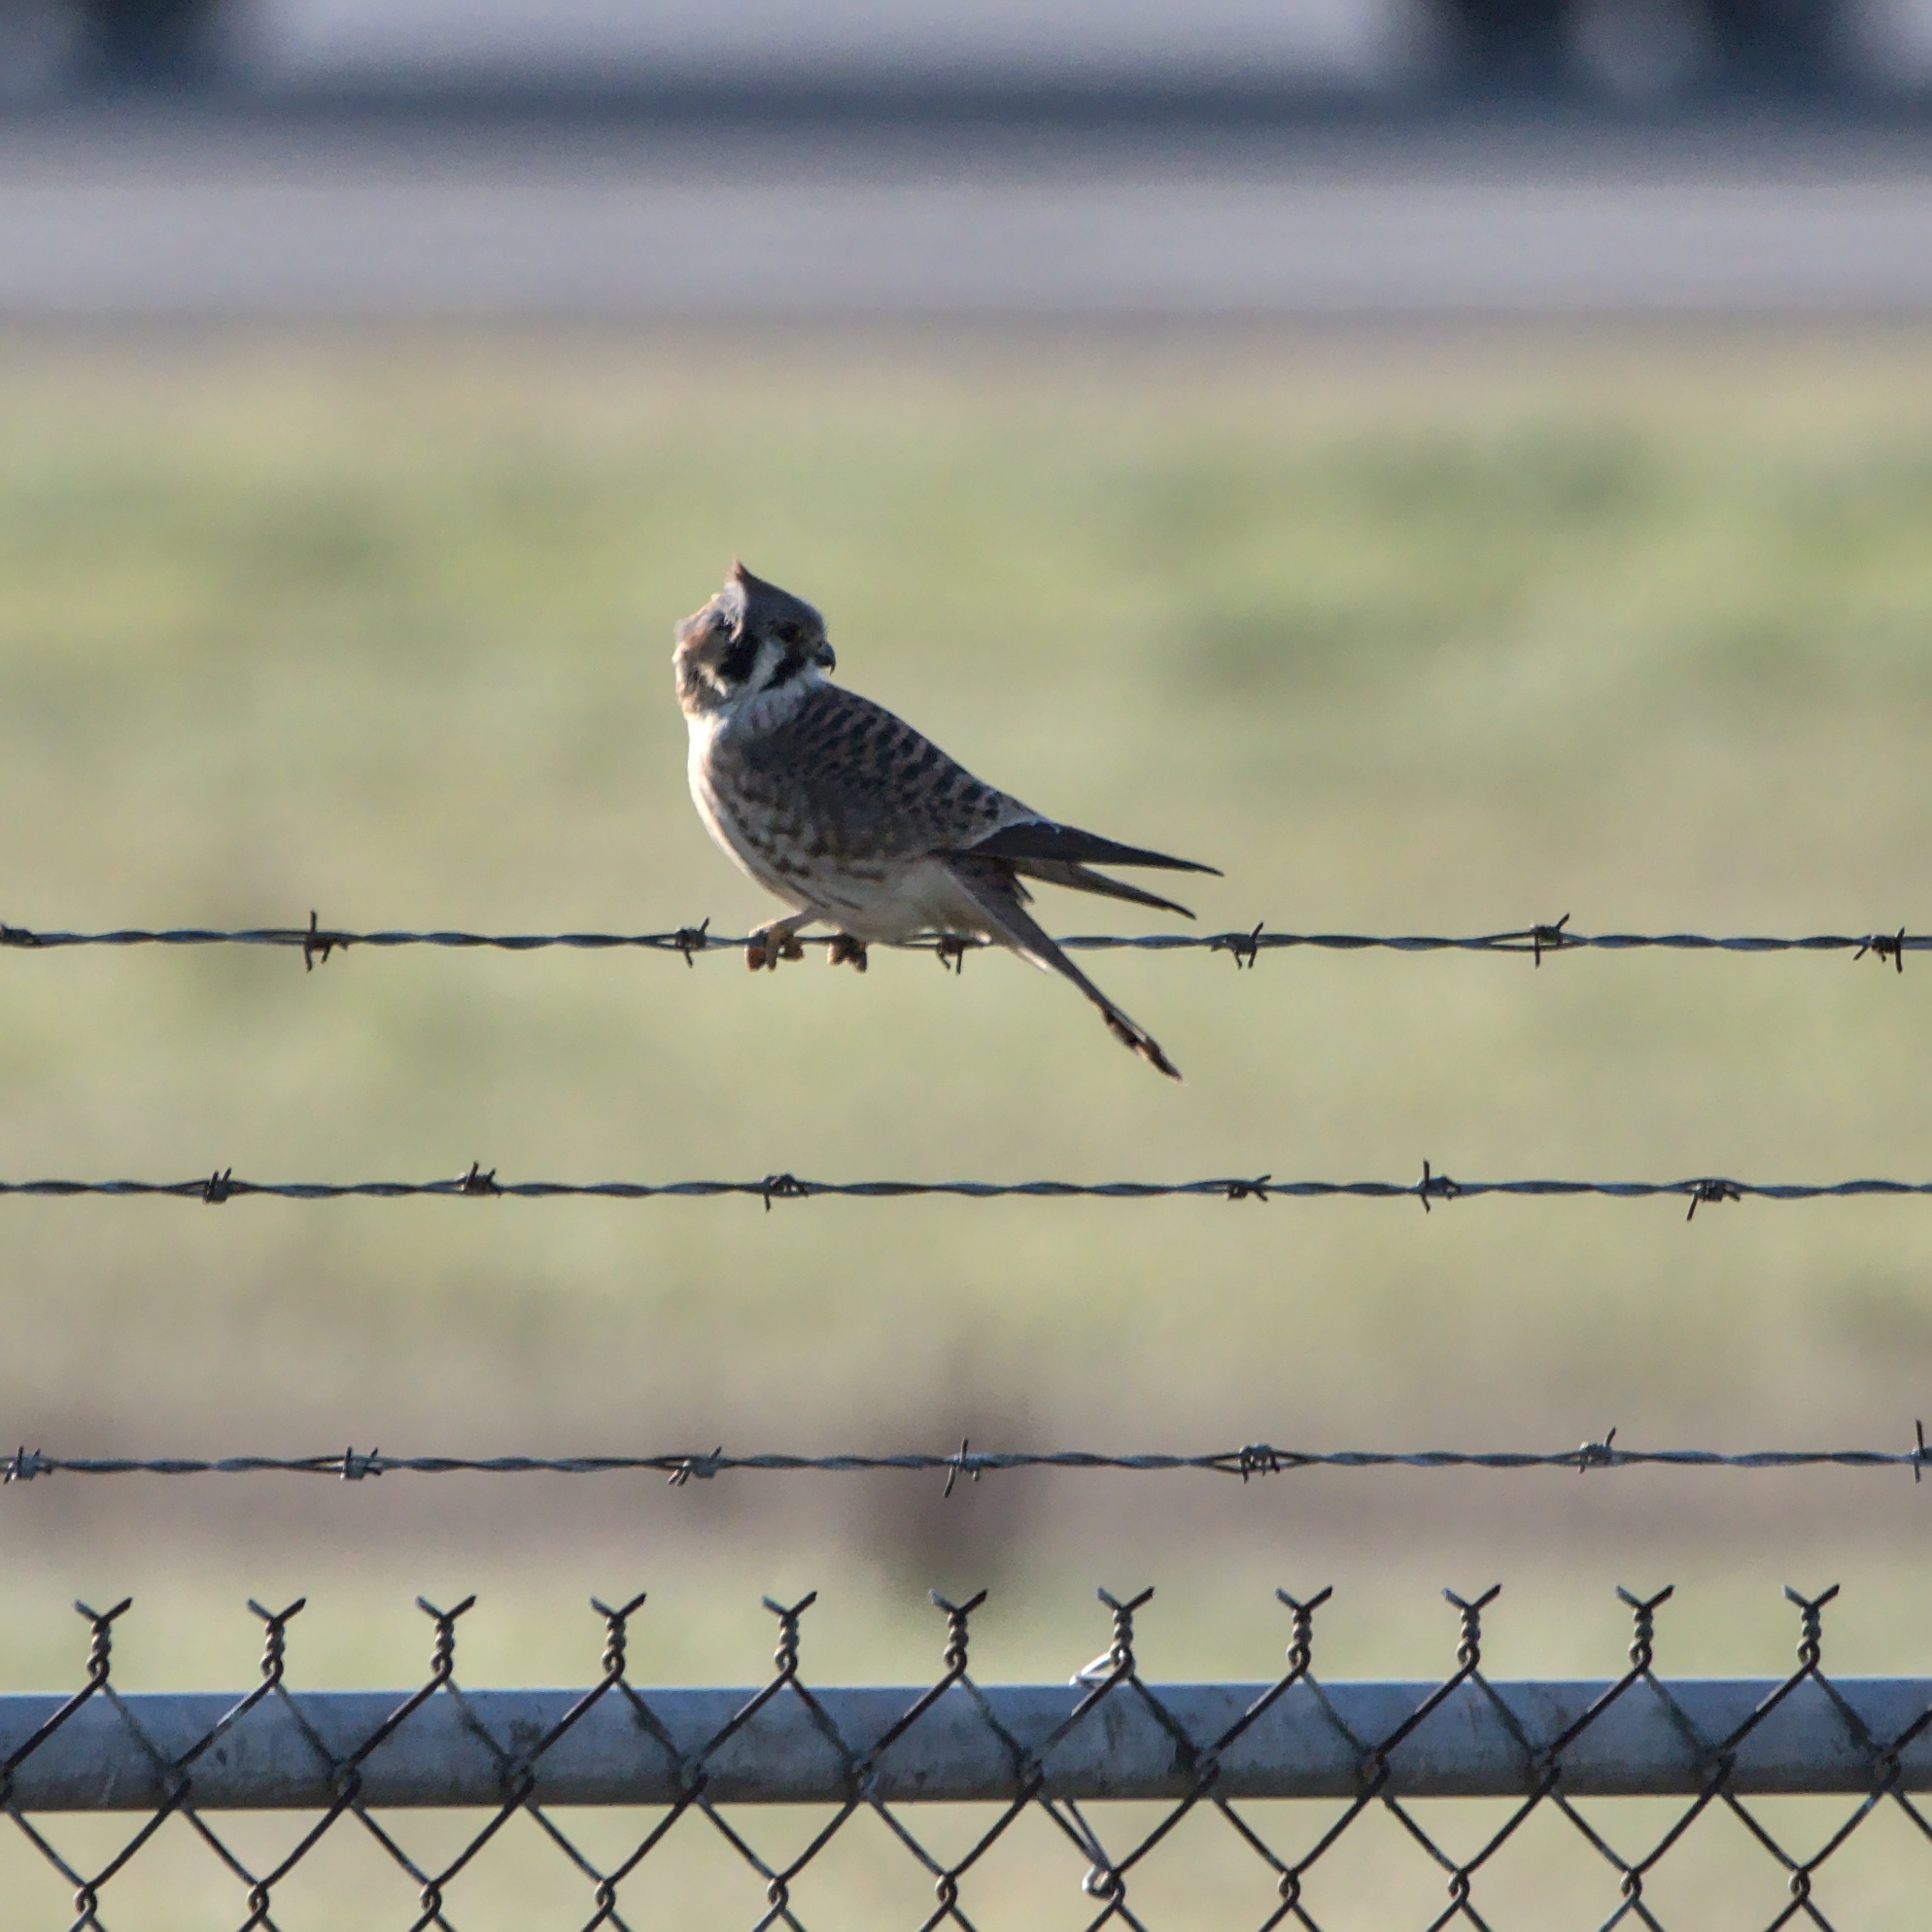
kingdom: Animalia
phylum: Chordata
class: Aves
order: Falconiformes
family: Falconidae
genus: Falco
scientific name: Falco sparverius
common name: American kestrel
